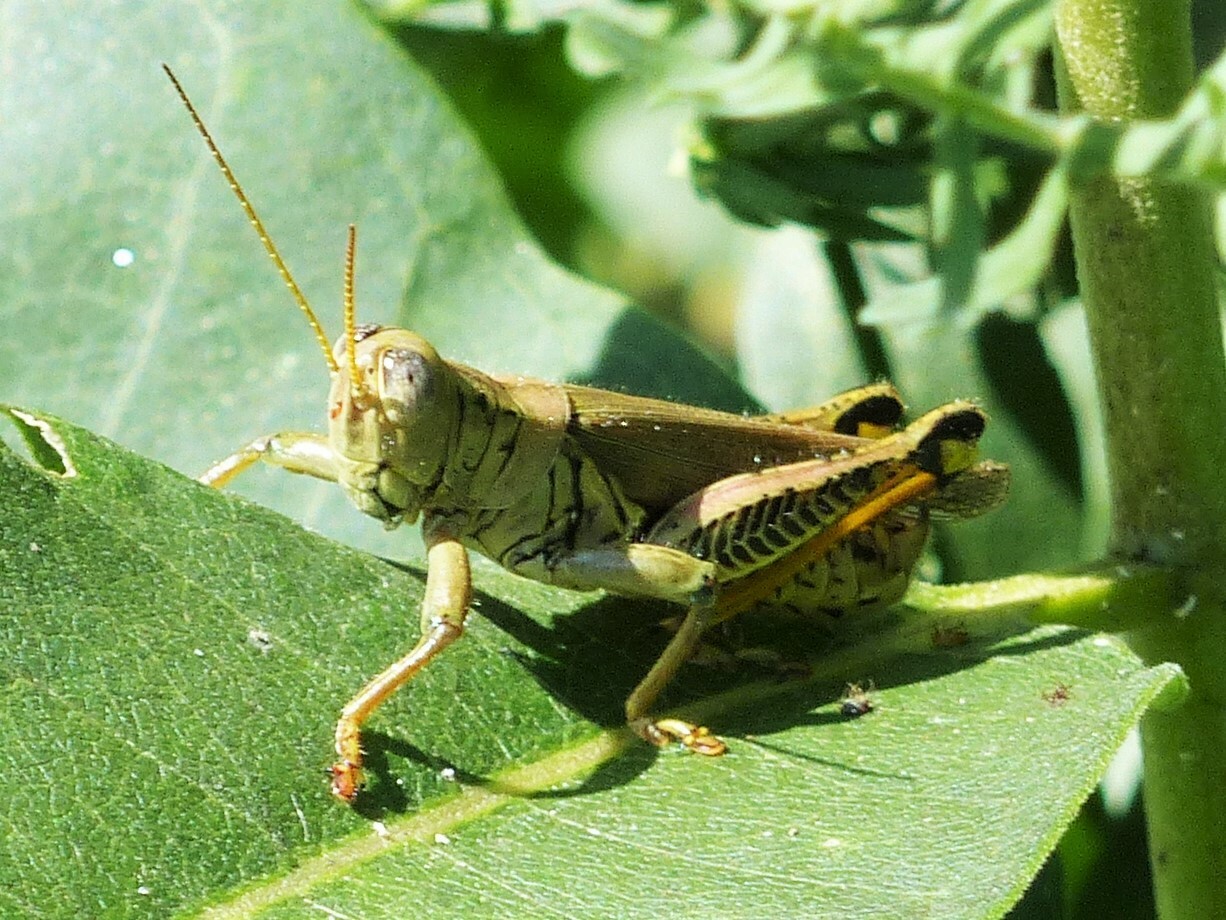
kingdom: Animalia
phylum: Arthropoda
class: Insecta
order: Orthoptera
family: Acrididae
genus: Melanoplus
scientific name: Melanoplus differentialis
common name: Differential grasshopper
